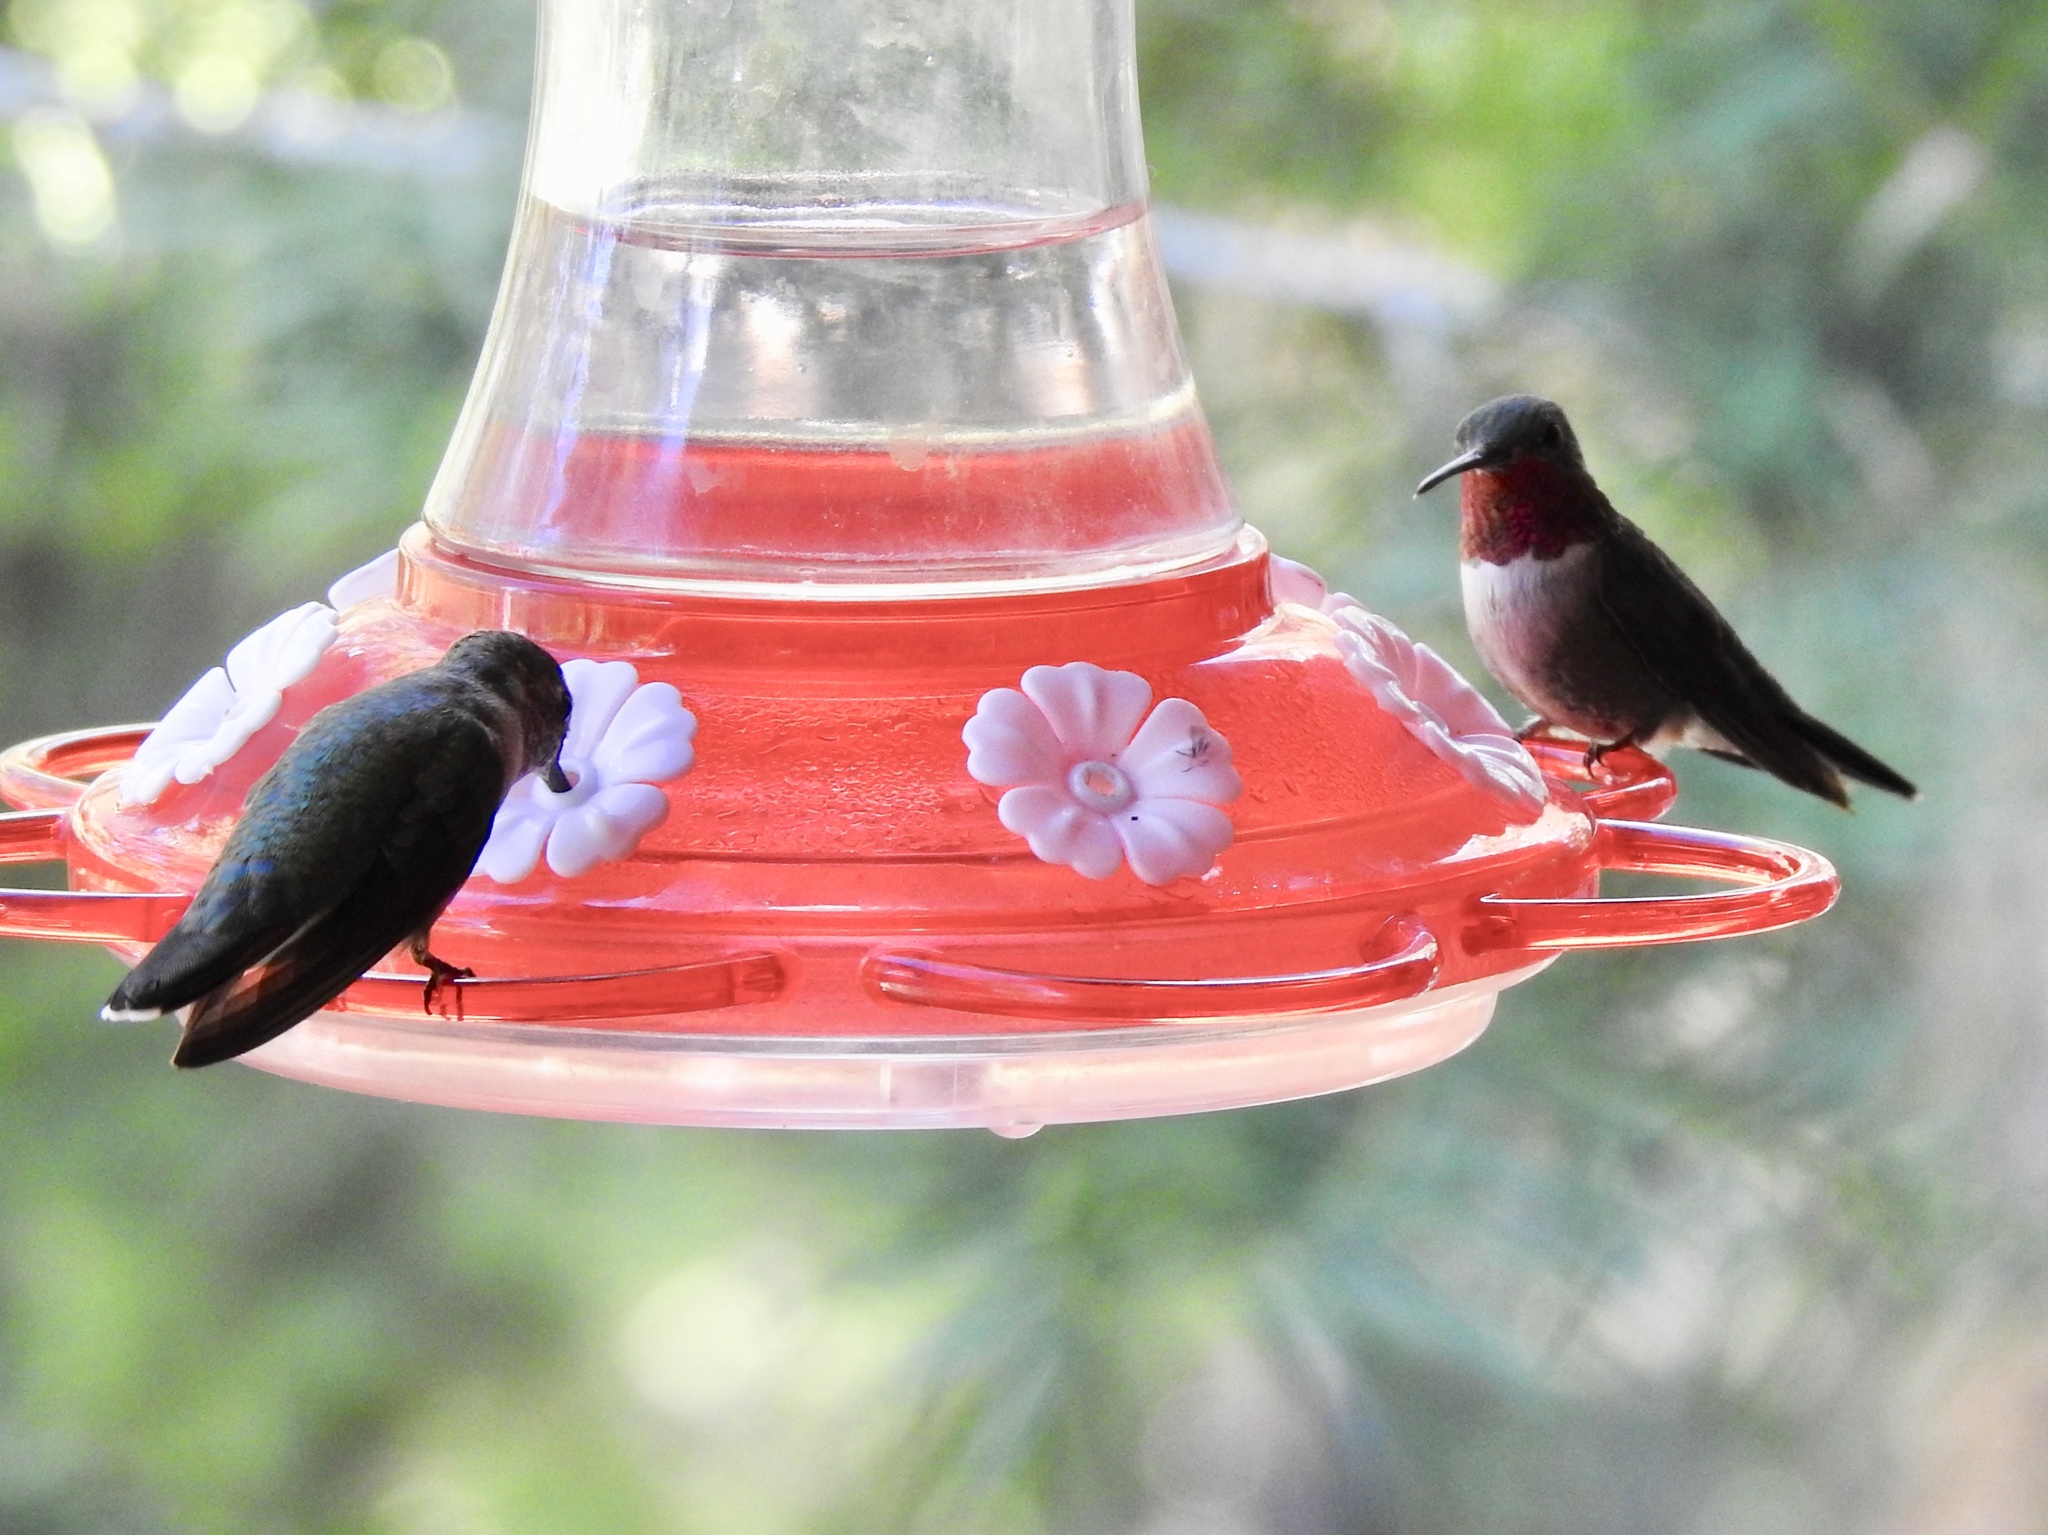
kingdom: Animalia
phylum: Chordata
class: Aves
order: Apodiformes
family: Trochilidae
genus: Selasphorus
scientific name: Selasphorus platycercus
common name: Broad-tailed hummingbird
